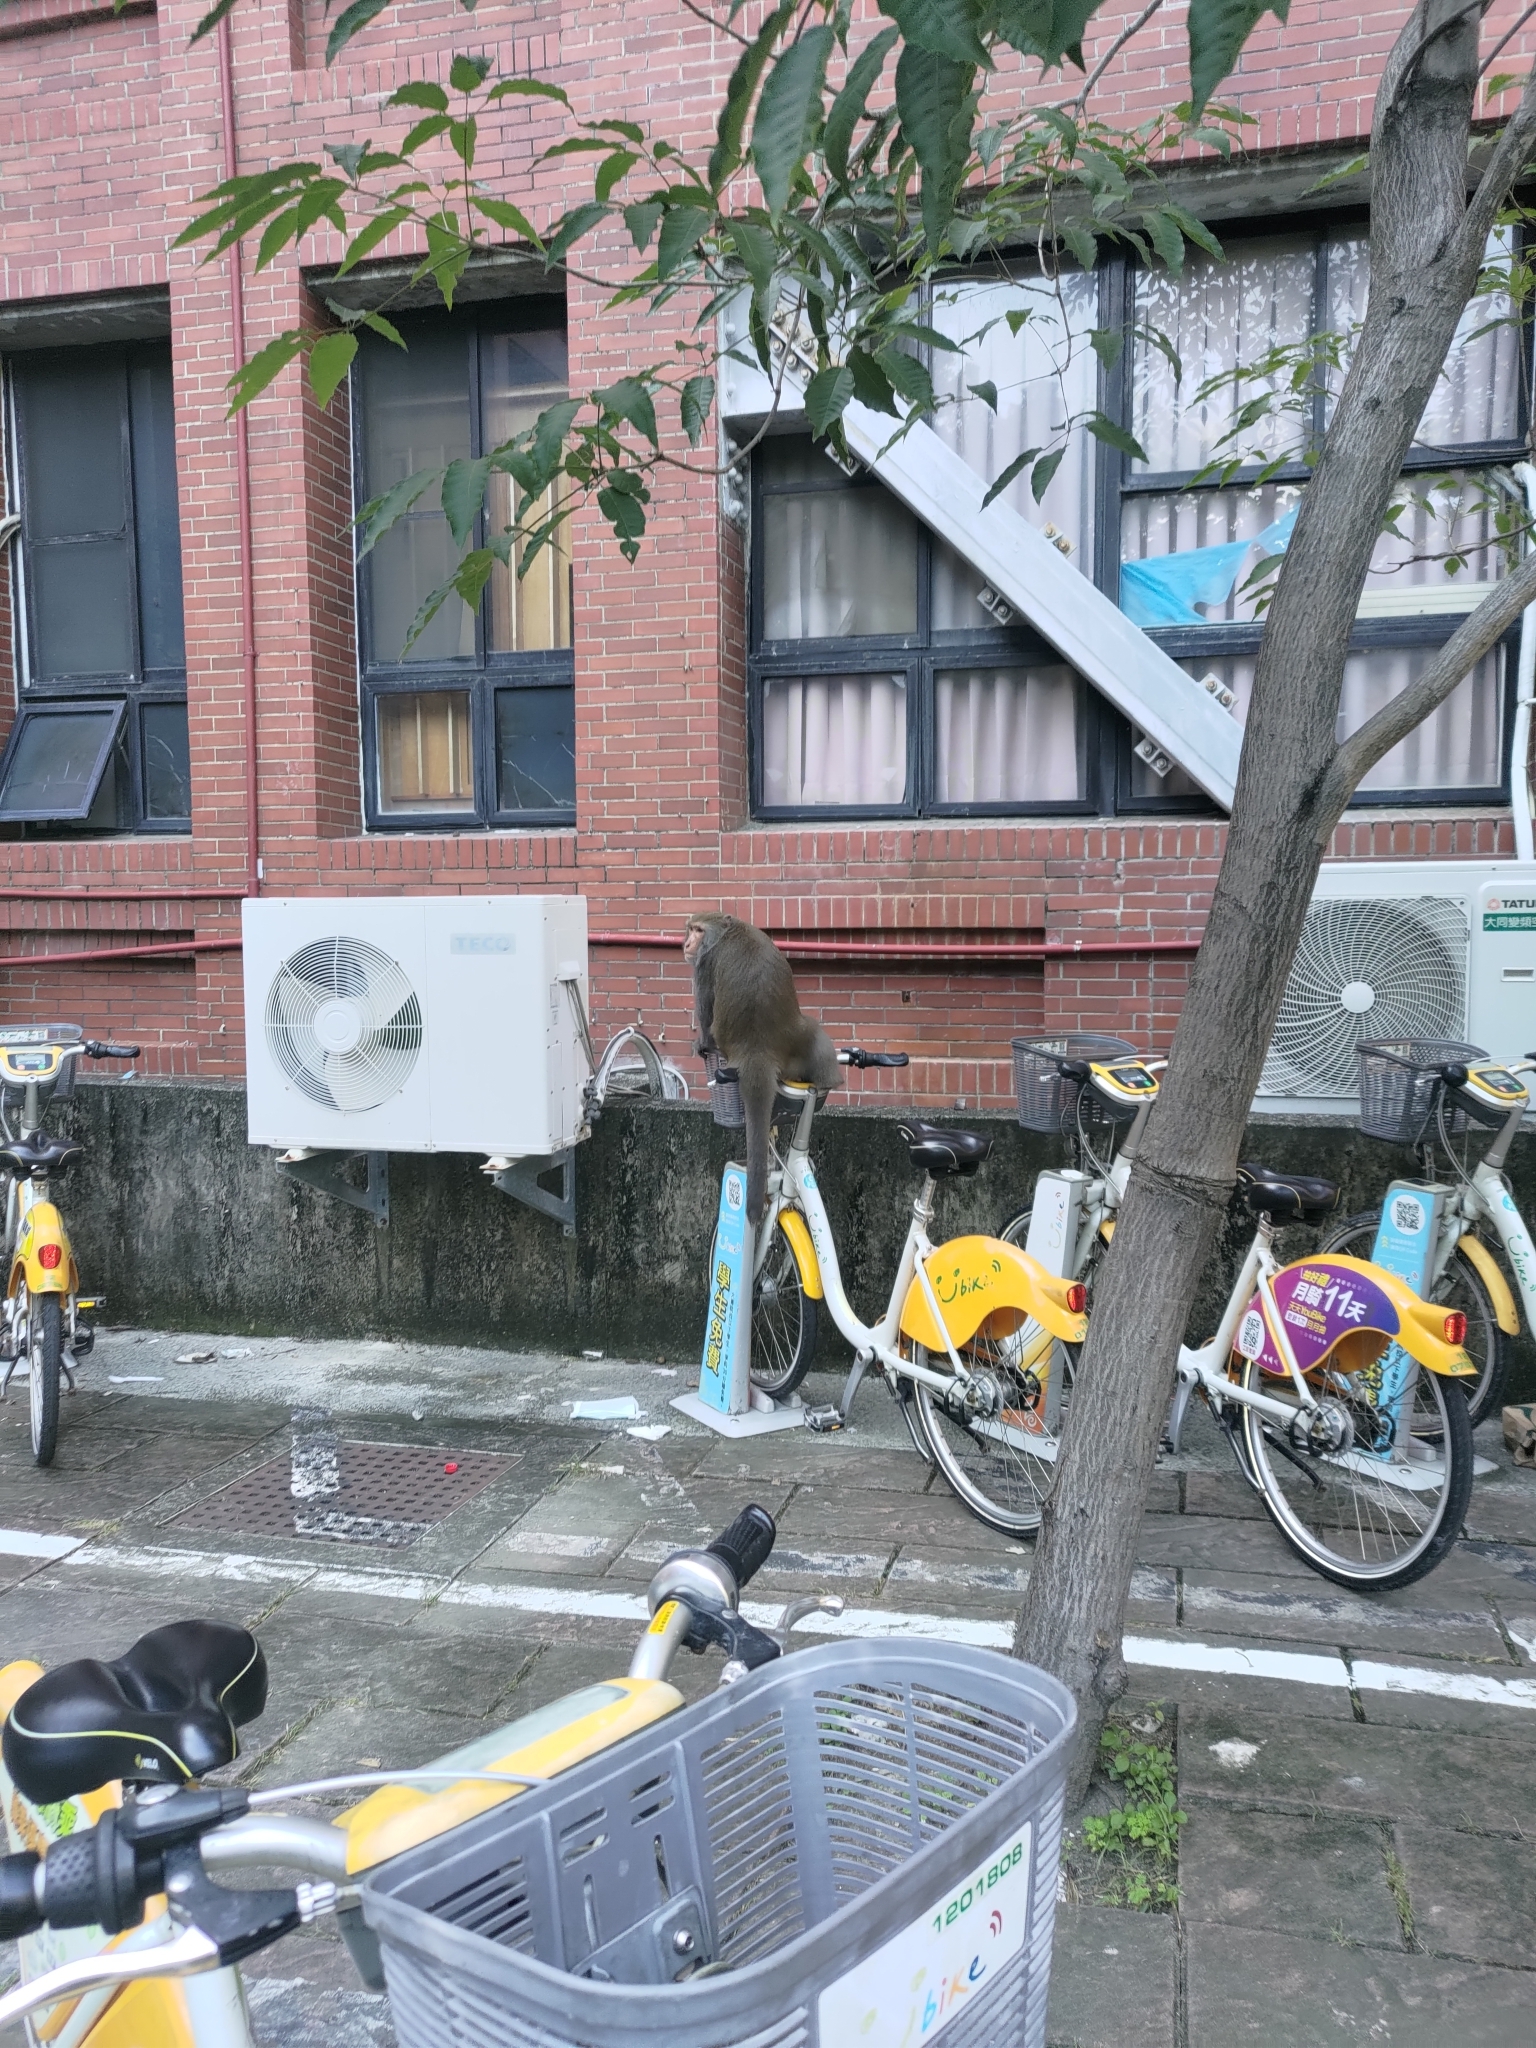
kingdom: Animalia
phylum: Chordata
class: Mammalia
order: Primates
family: Cercopithecidae
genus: Macaca
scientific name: Macaca cyclopis
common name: Formosan rock macaque
